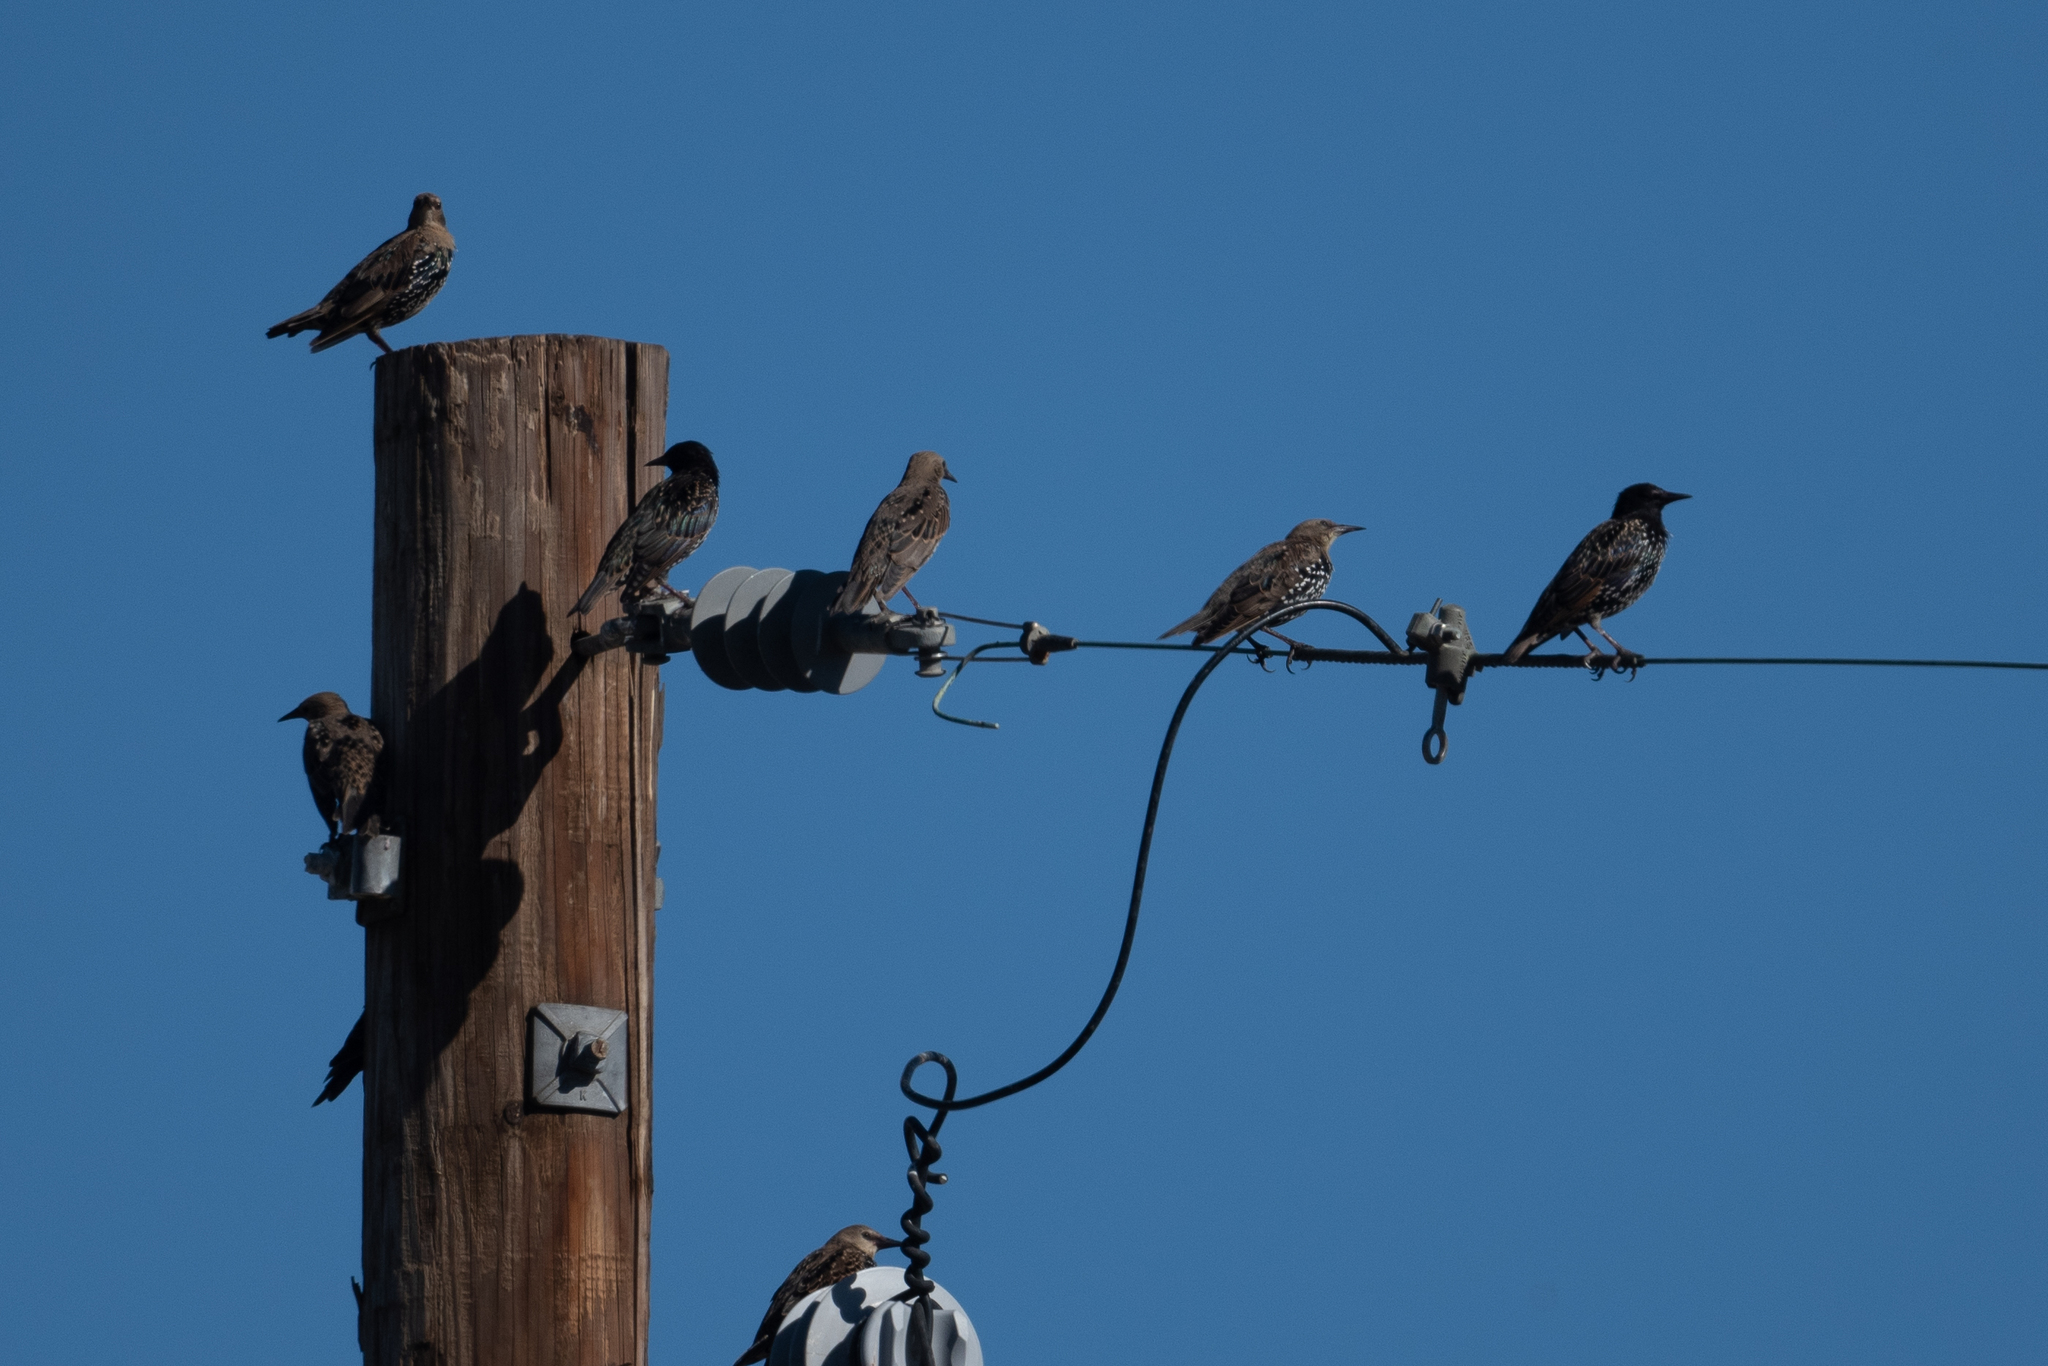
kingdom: Animalia
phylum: Chordata
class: Aves
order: Passeriformes
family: Sturnidae
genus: Sturnus
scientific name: Sturnus vulgaris
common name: Common starling
